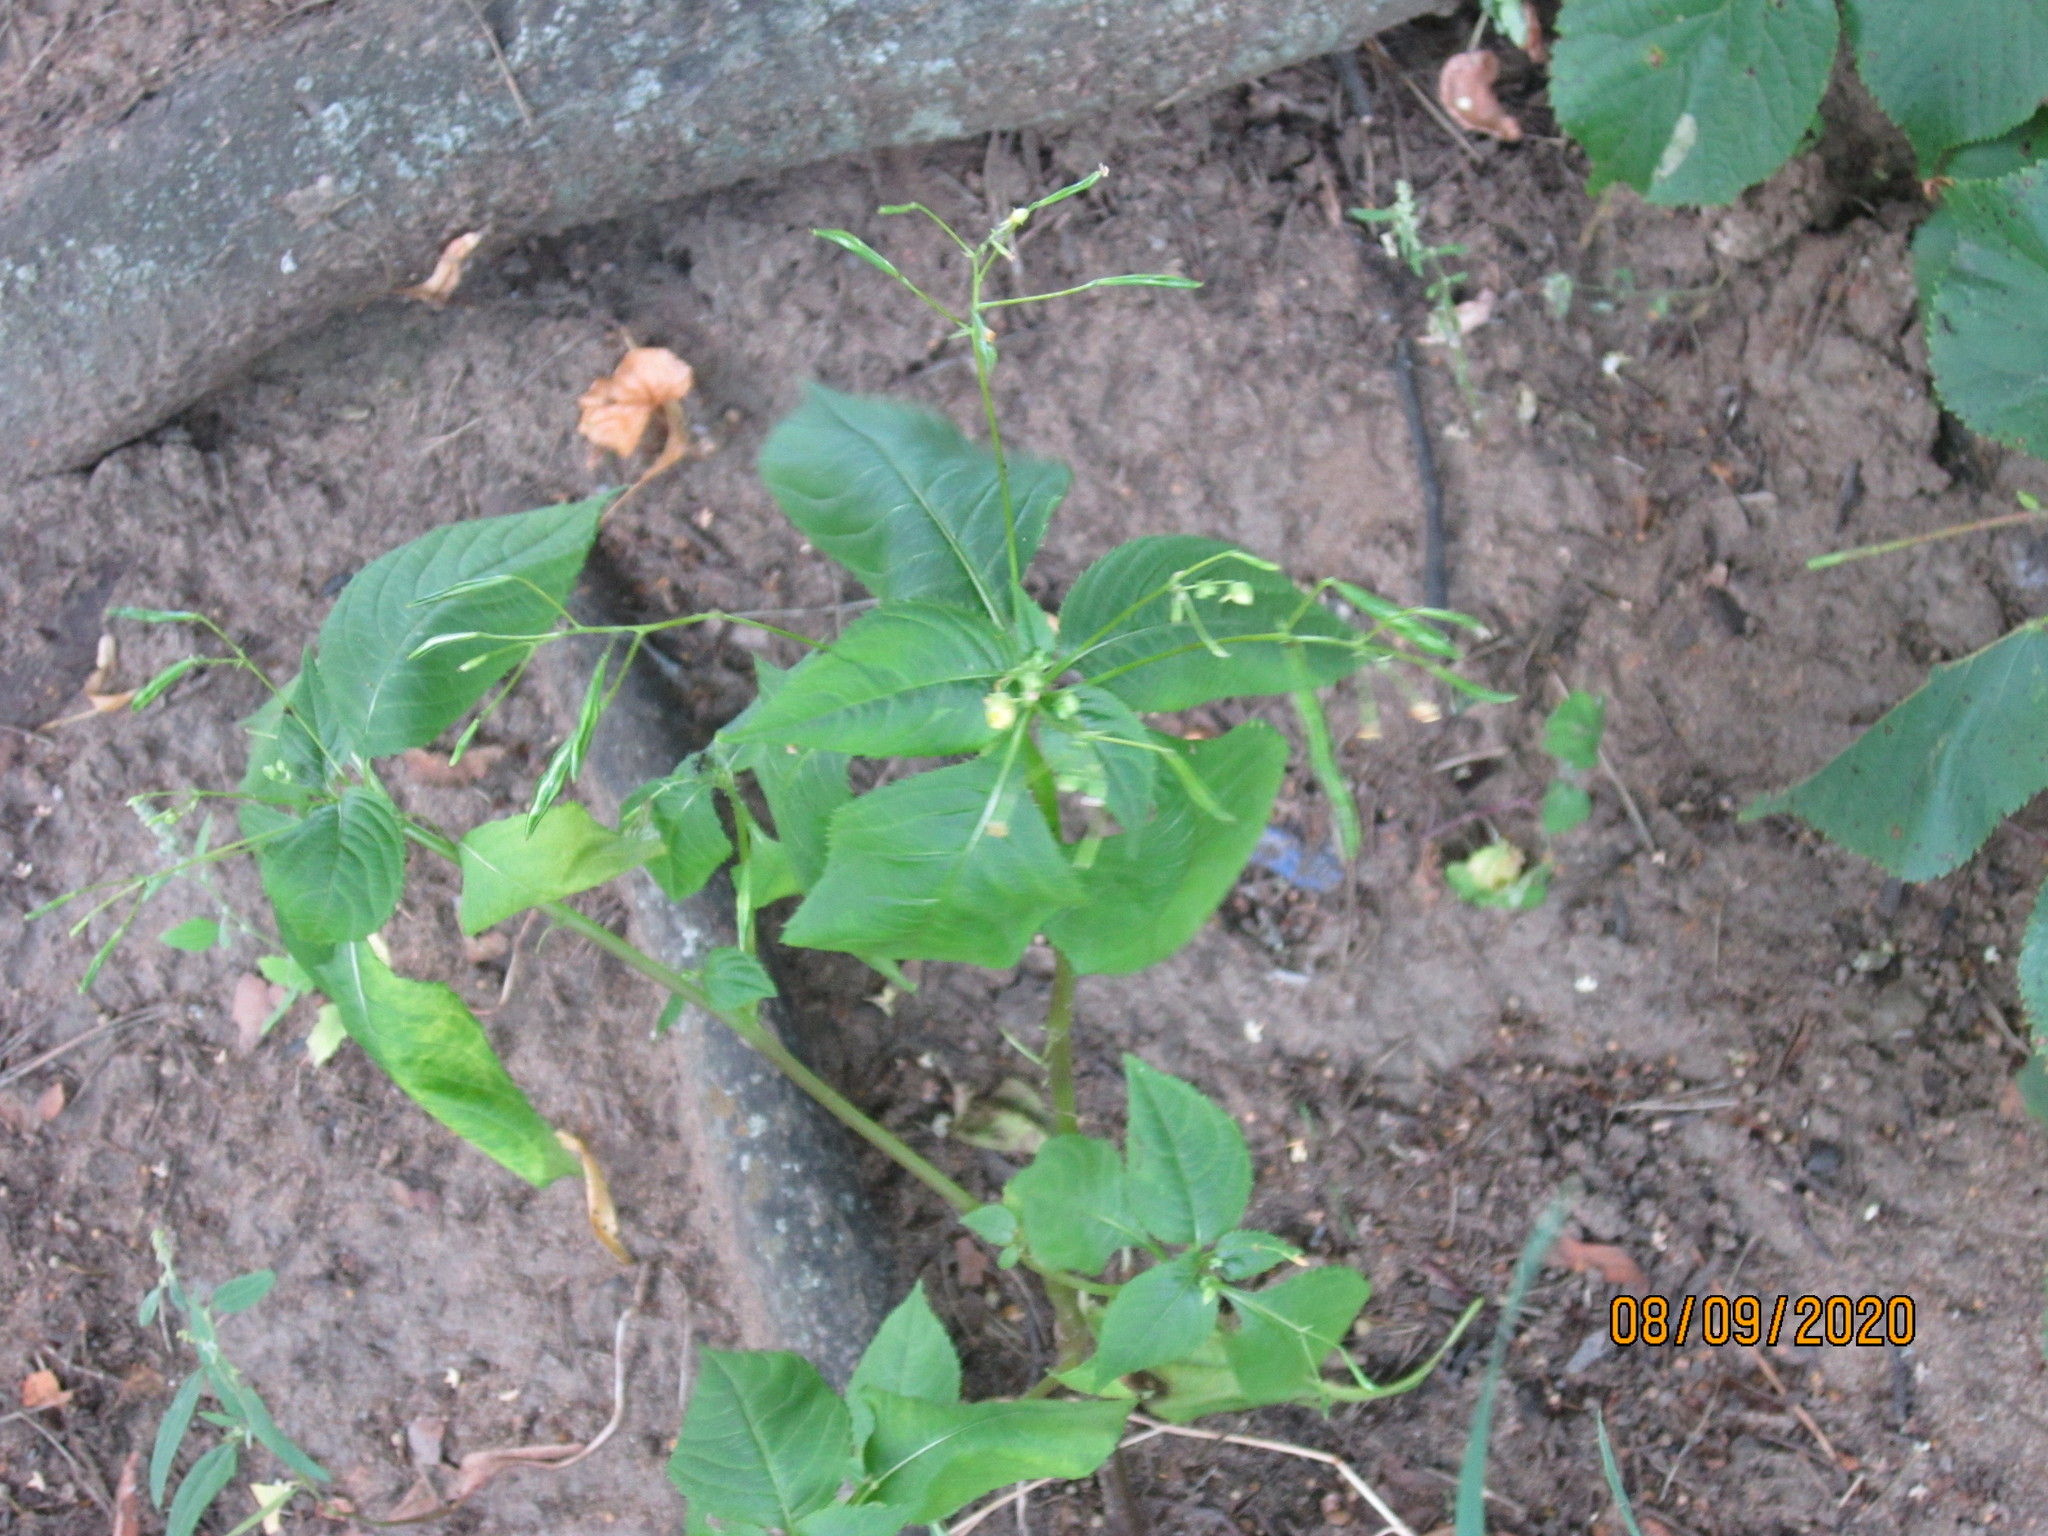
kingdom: Plantae
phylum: Tracheophyta
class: Magnoliopsida
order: Ericales
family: Balsaminaceae
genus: Impatiens
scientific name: Impatiens parviflora
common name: Small balsam
